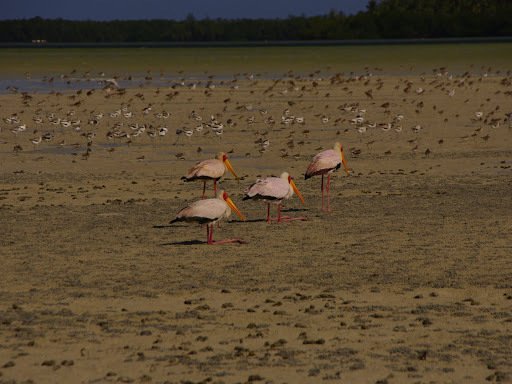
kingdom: Animalia
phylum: Chordata
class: Aves
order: Ciconiiformes
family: Ciconiidae
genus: Mycteria
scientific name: Mycteria ibis
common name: Yellow-billed stork
